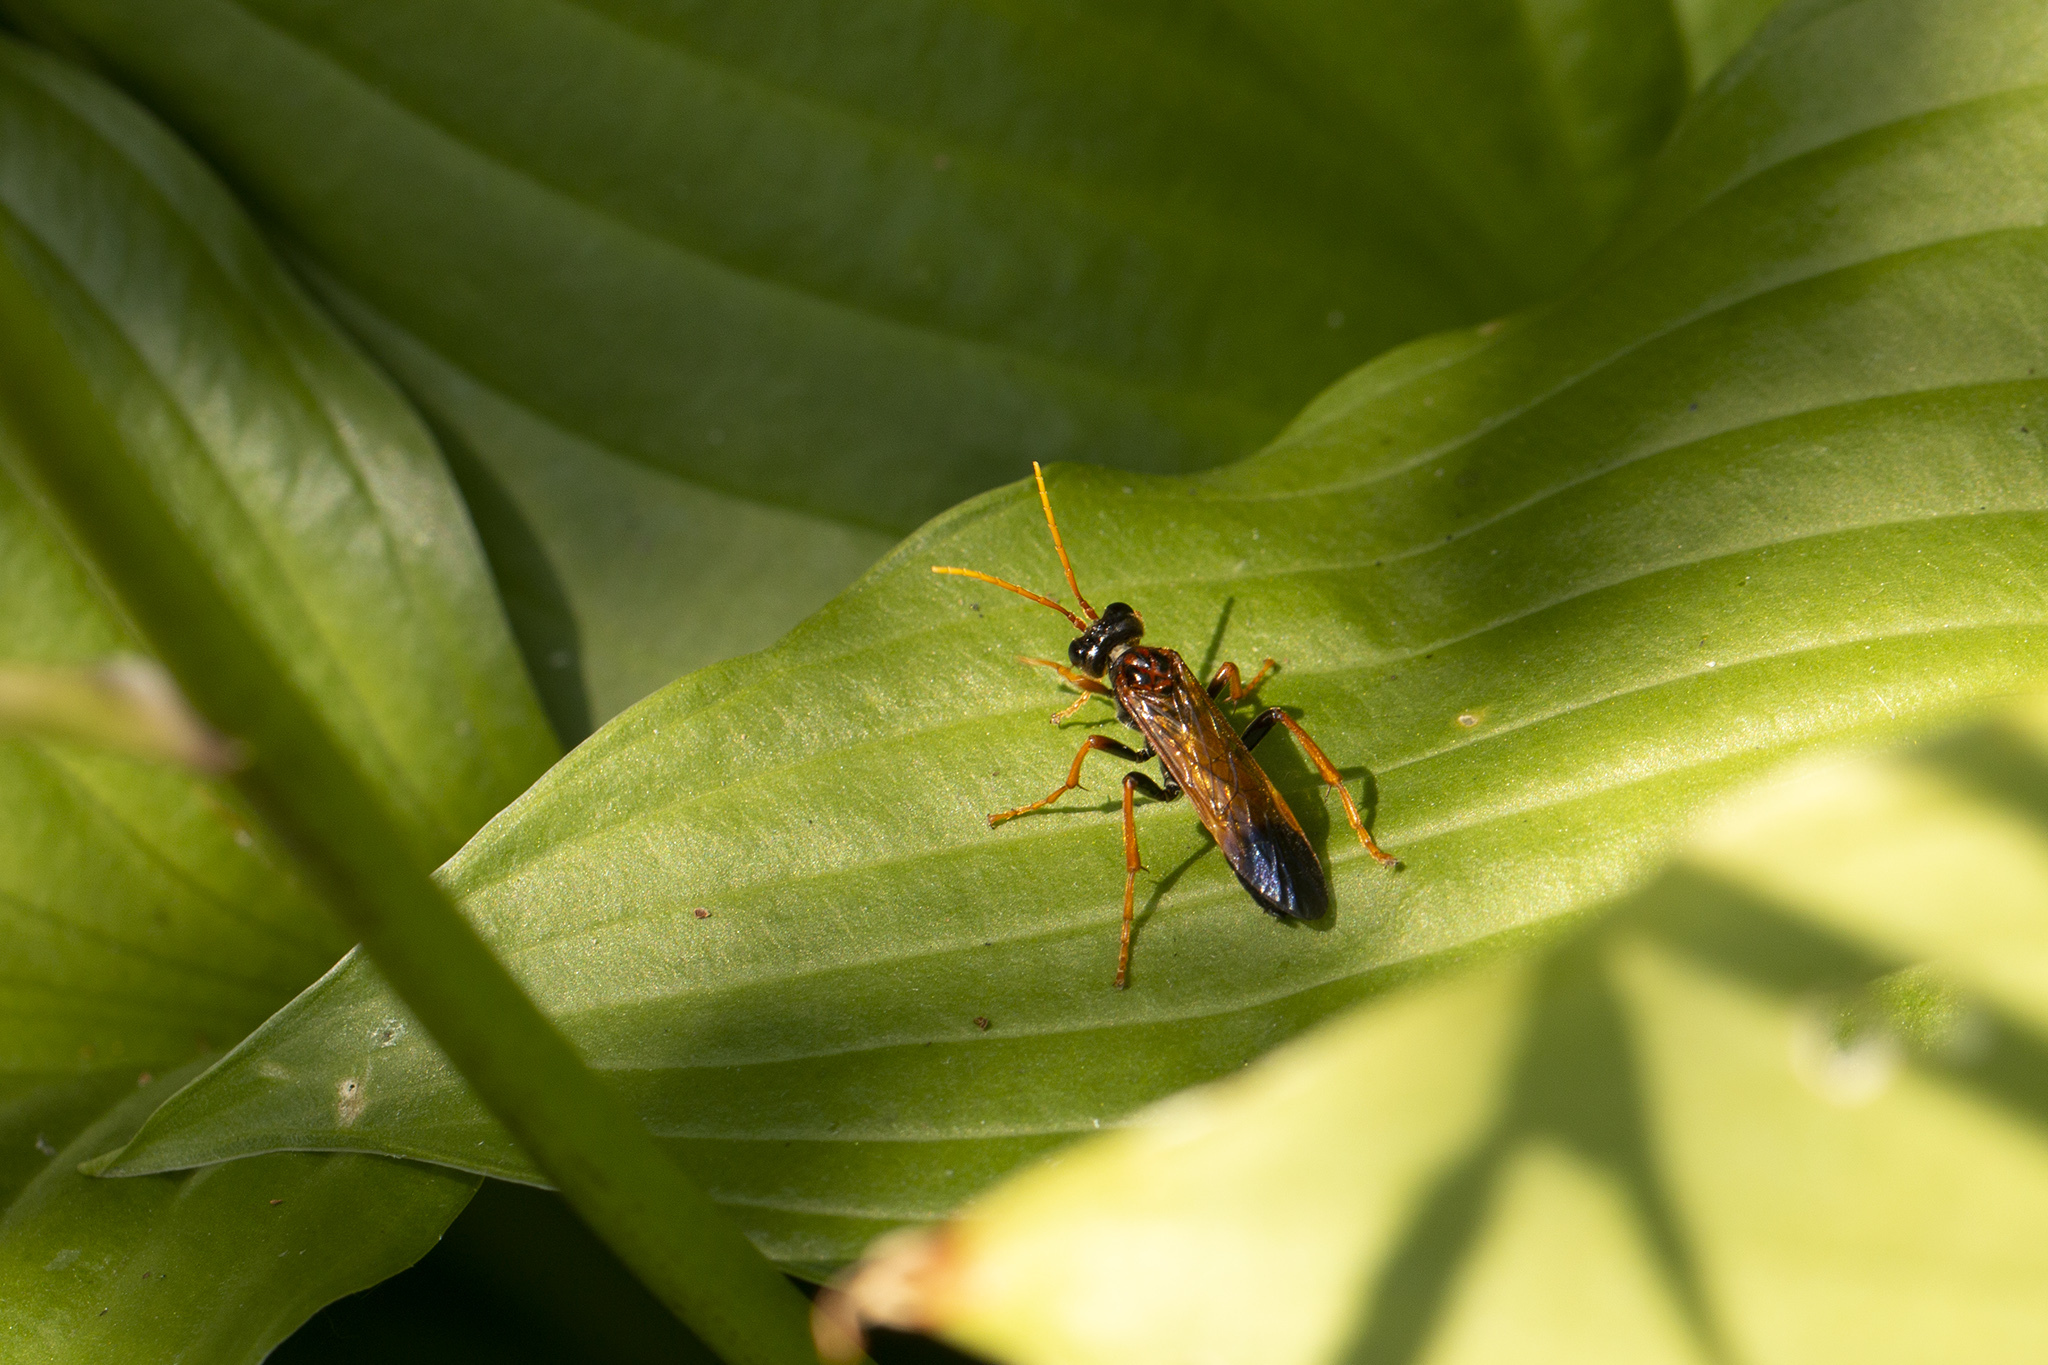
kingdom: Animalia
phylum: Arthropoda
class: Insecta
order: Hymenoptera
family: Tenthredinidae
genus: Tenthredo
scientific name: Tenthredo campestris
